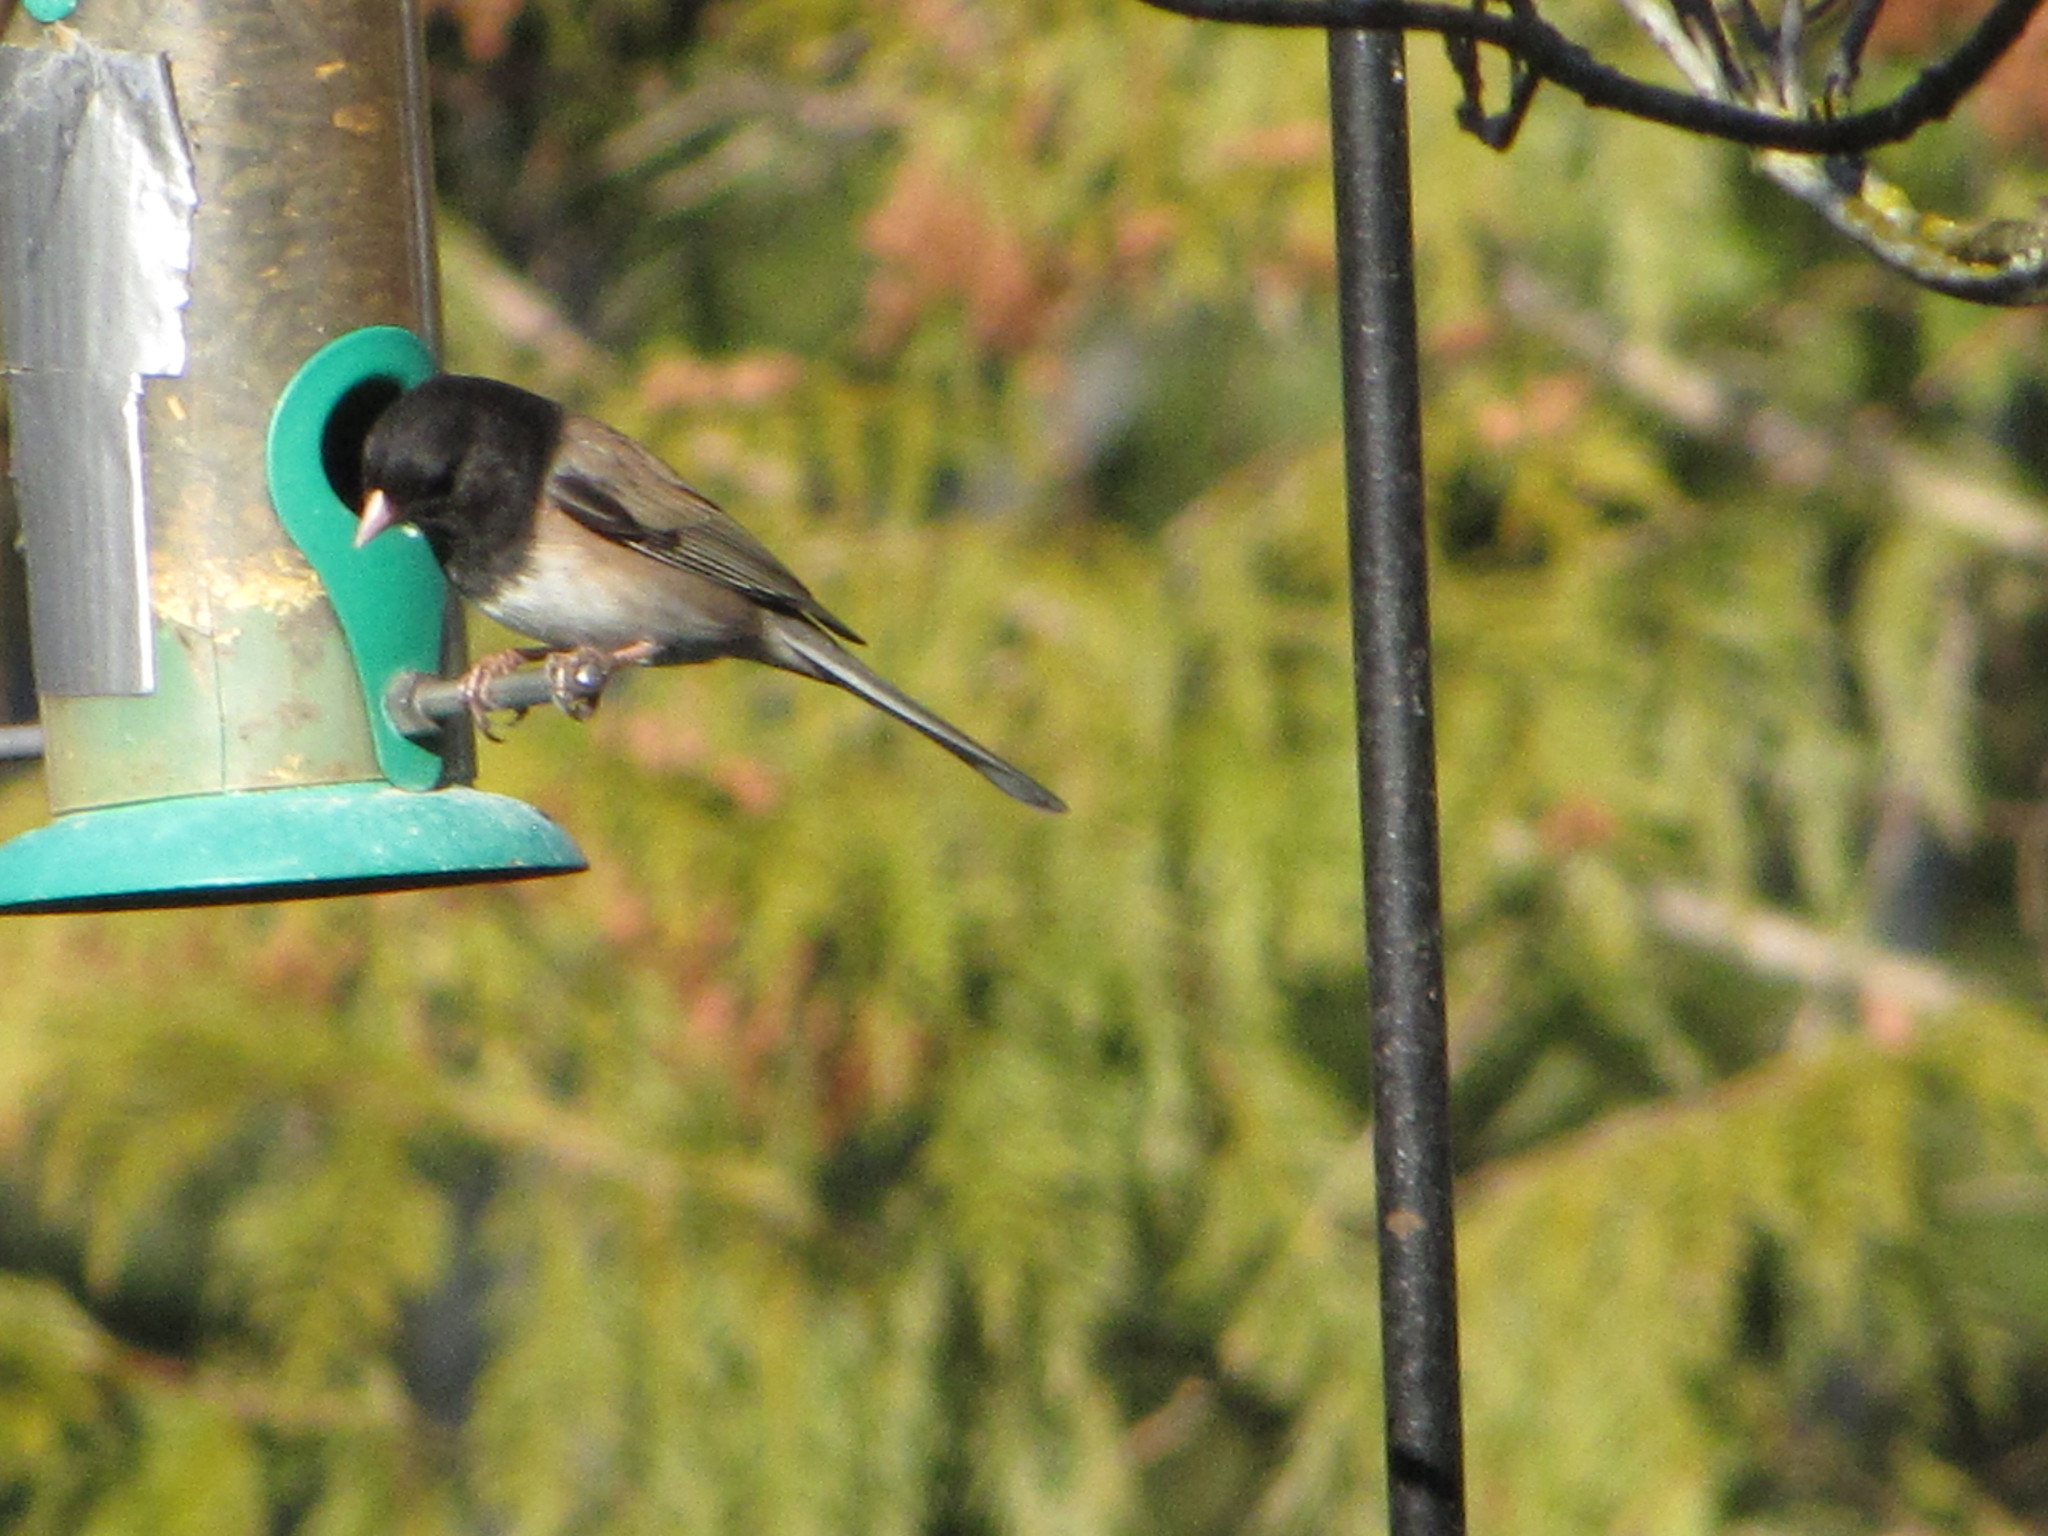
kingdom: Animalia
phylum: Chordata
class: Aves
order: Passeriformes
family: Passerellidae
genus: Junco
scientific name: Junco hyemalis
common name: Dark-eyed junco
